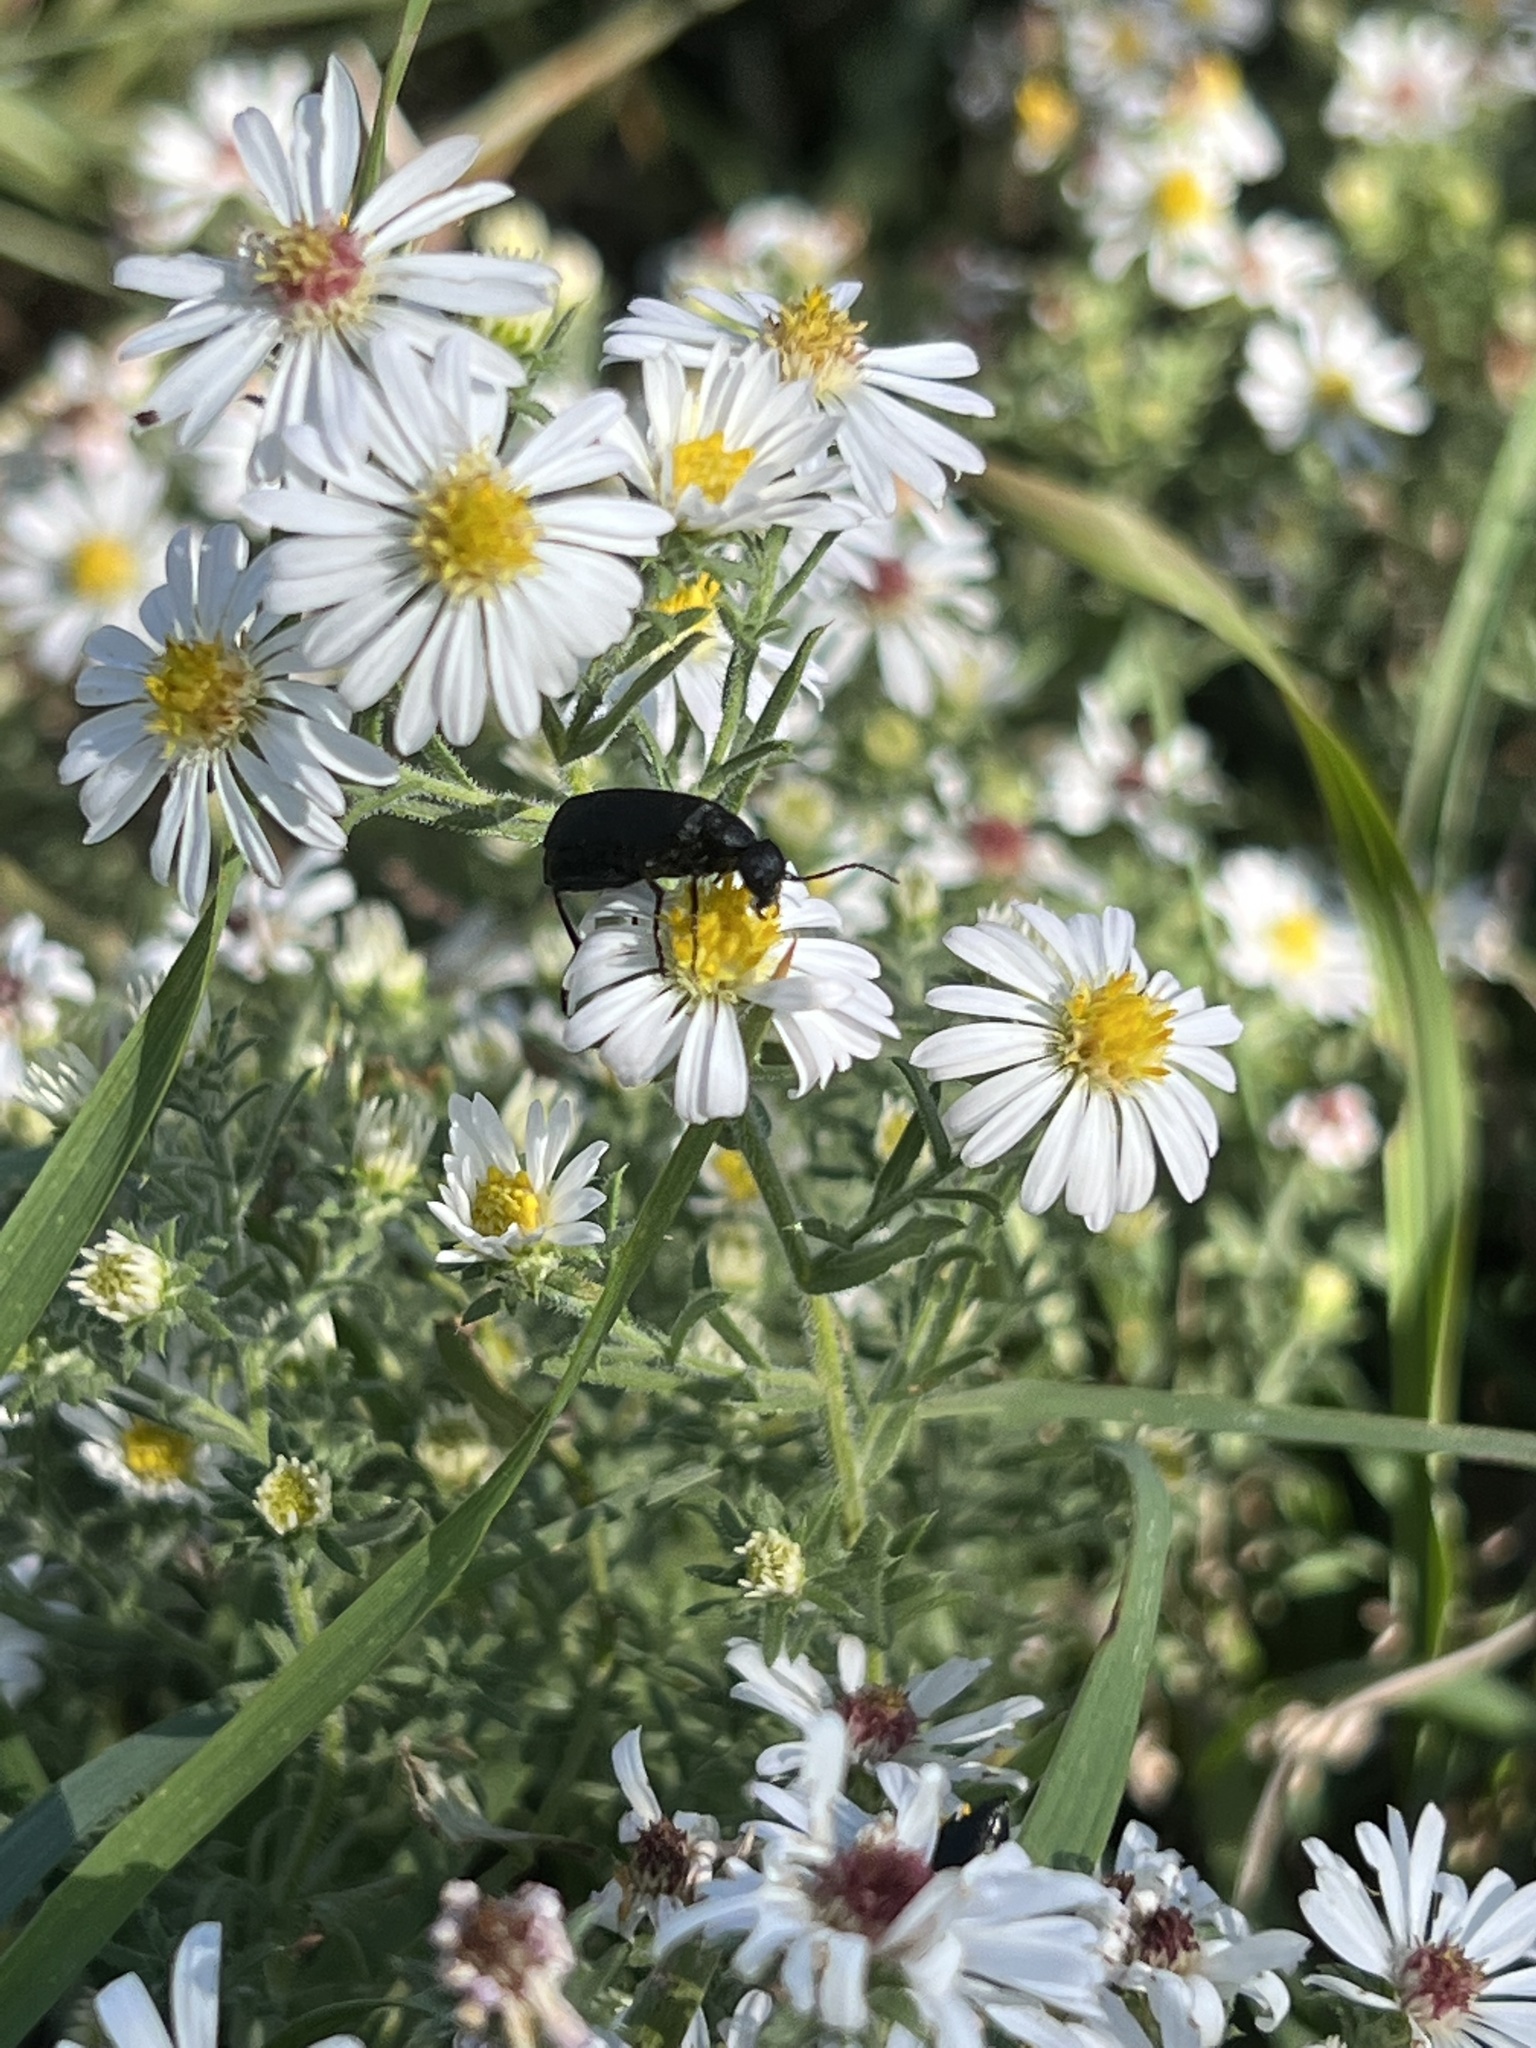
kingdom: Animalia
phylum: Arthropoda
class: Insecta
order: Coleoptera
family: Meloidae
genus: Epicauta
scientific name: Epicauta pensylvanica
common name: Black blister beetle
